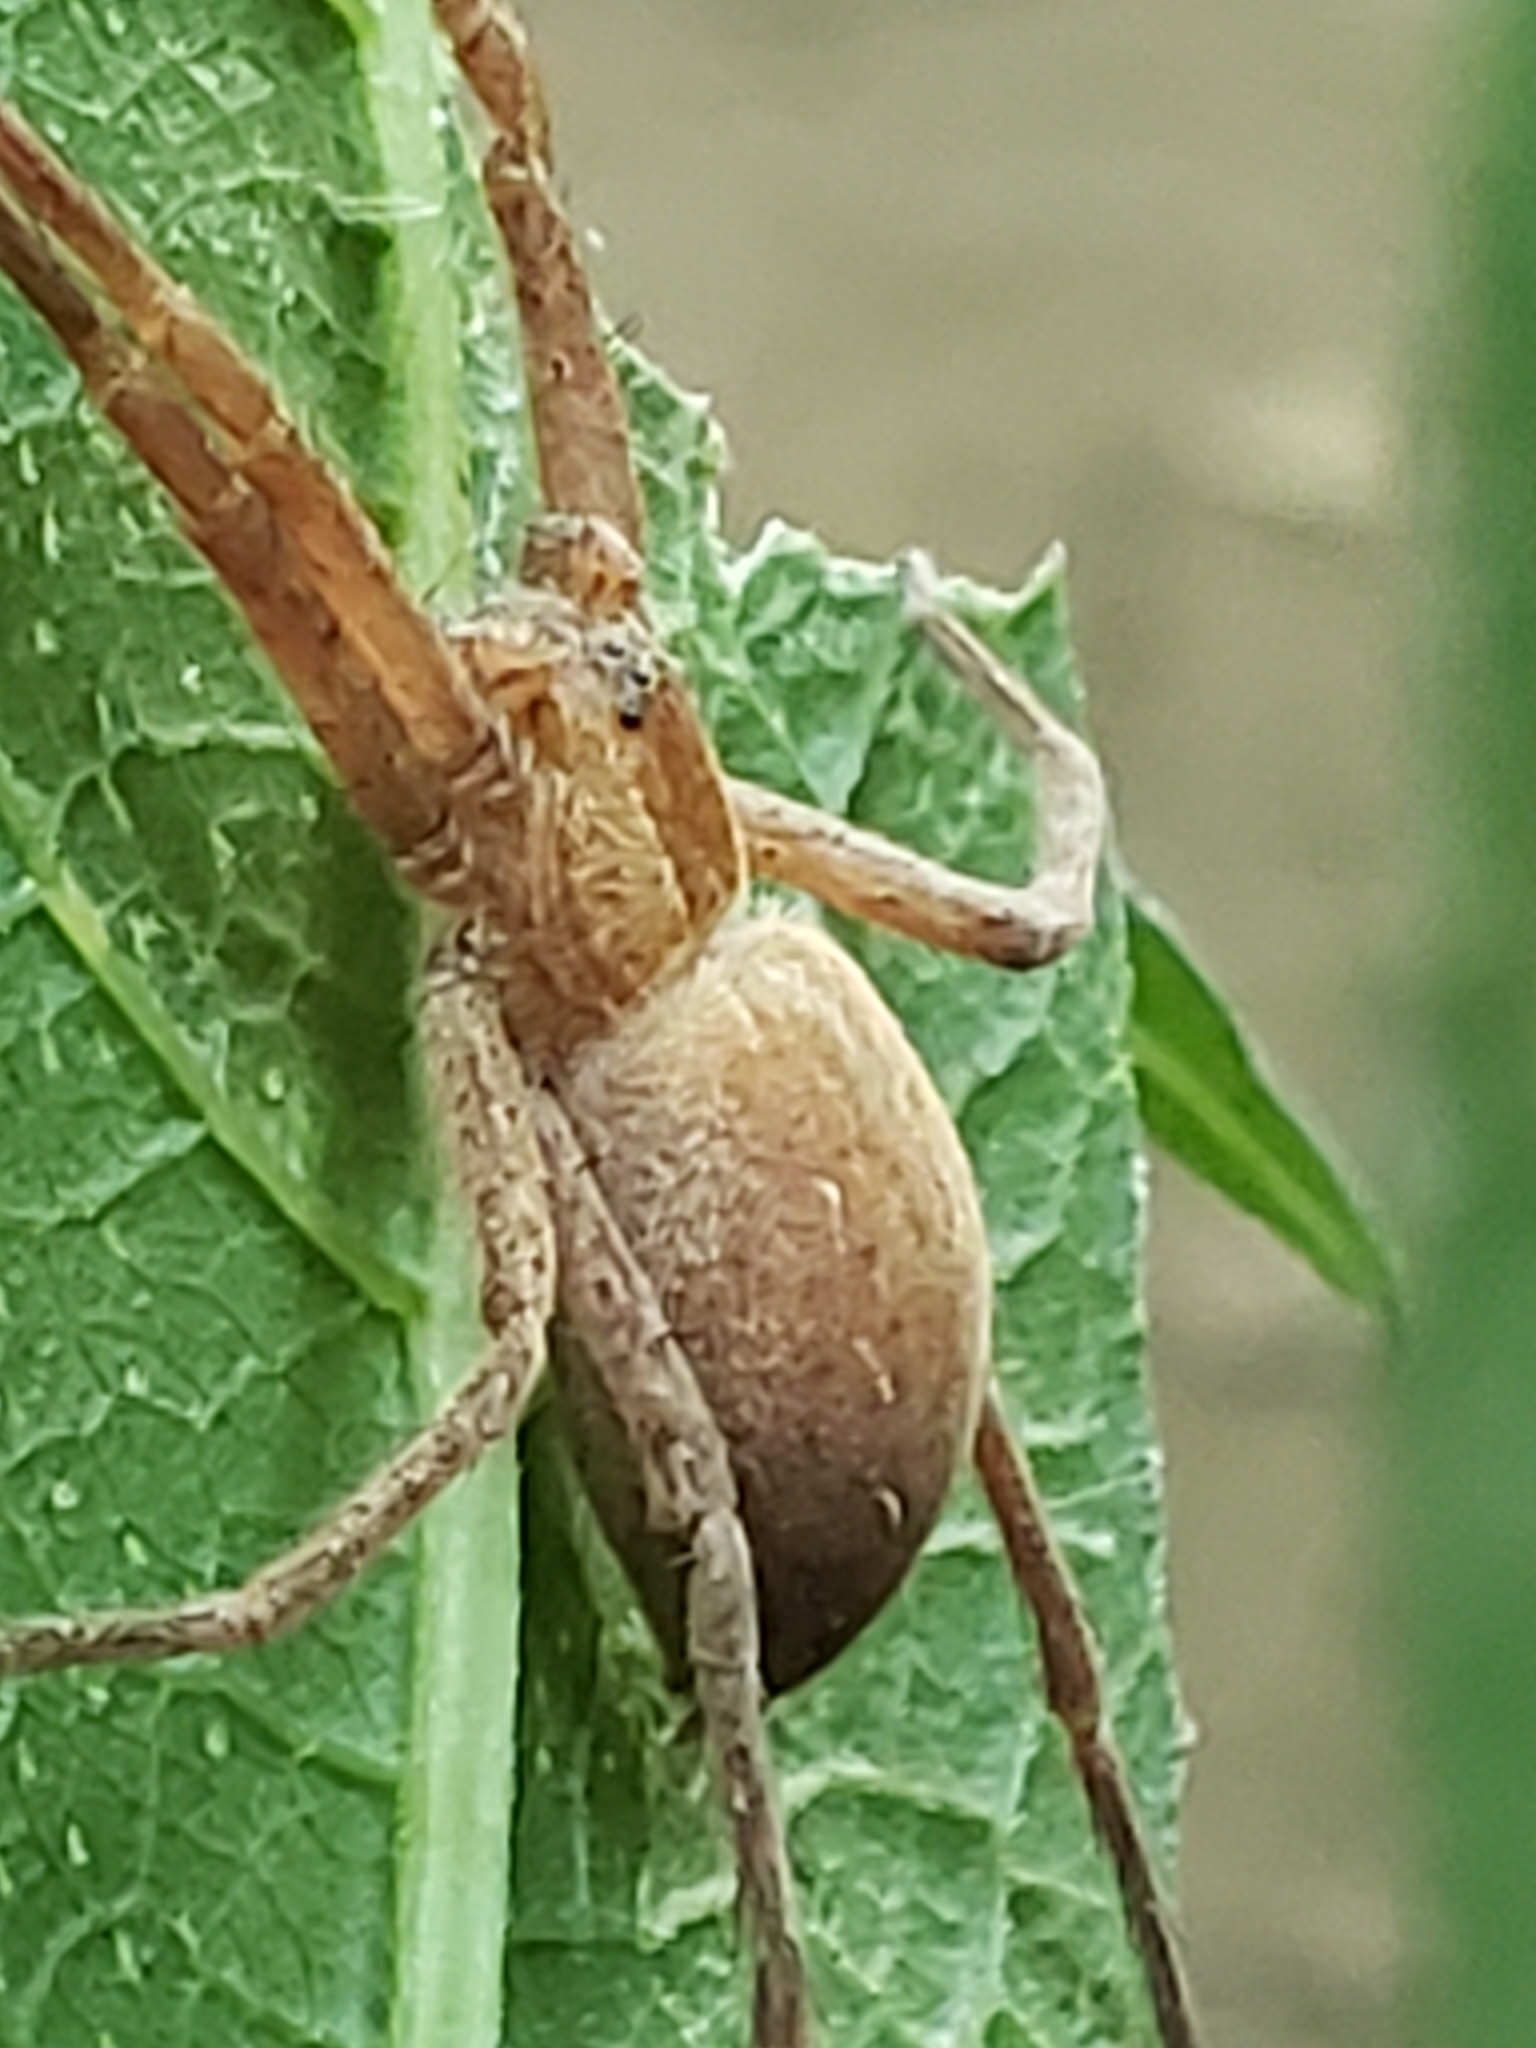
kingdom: Animalia
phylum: Arthropoda
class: Arachnida
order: Araneae
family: Pisauridae
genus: Pisaurina
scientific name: Pisaurina mira
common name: American nursery web spider
